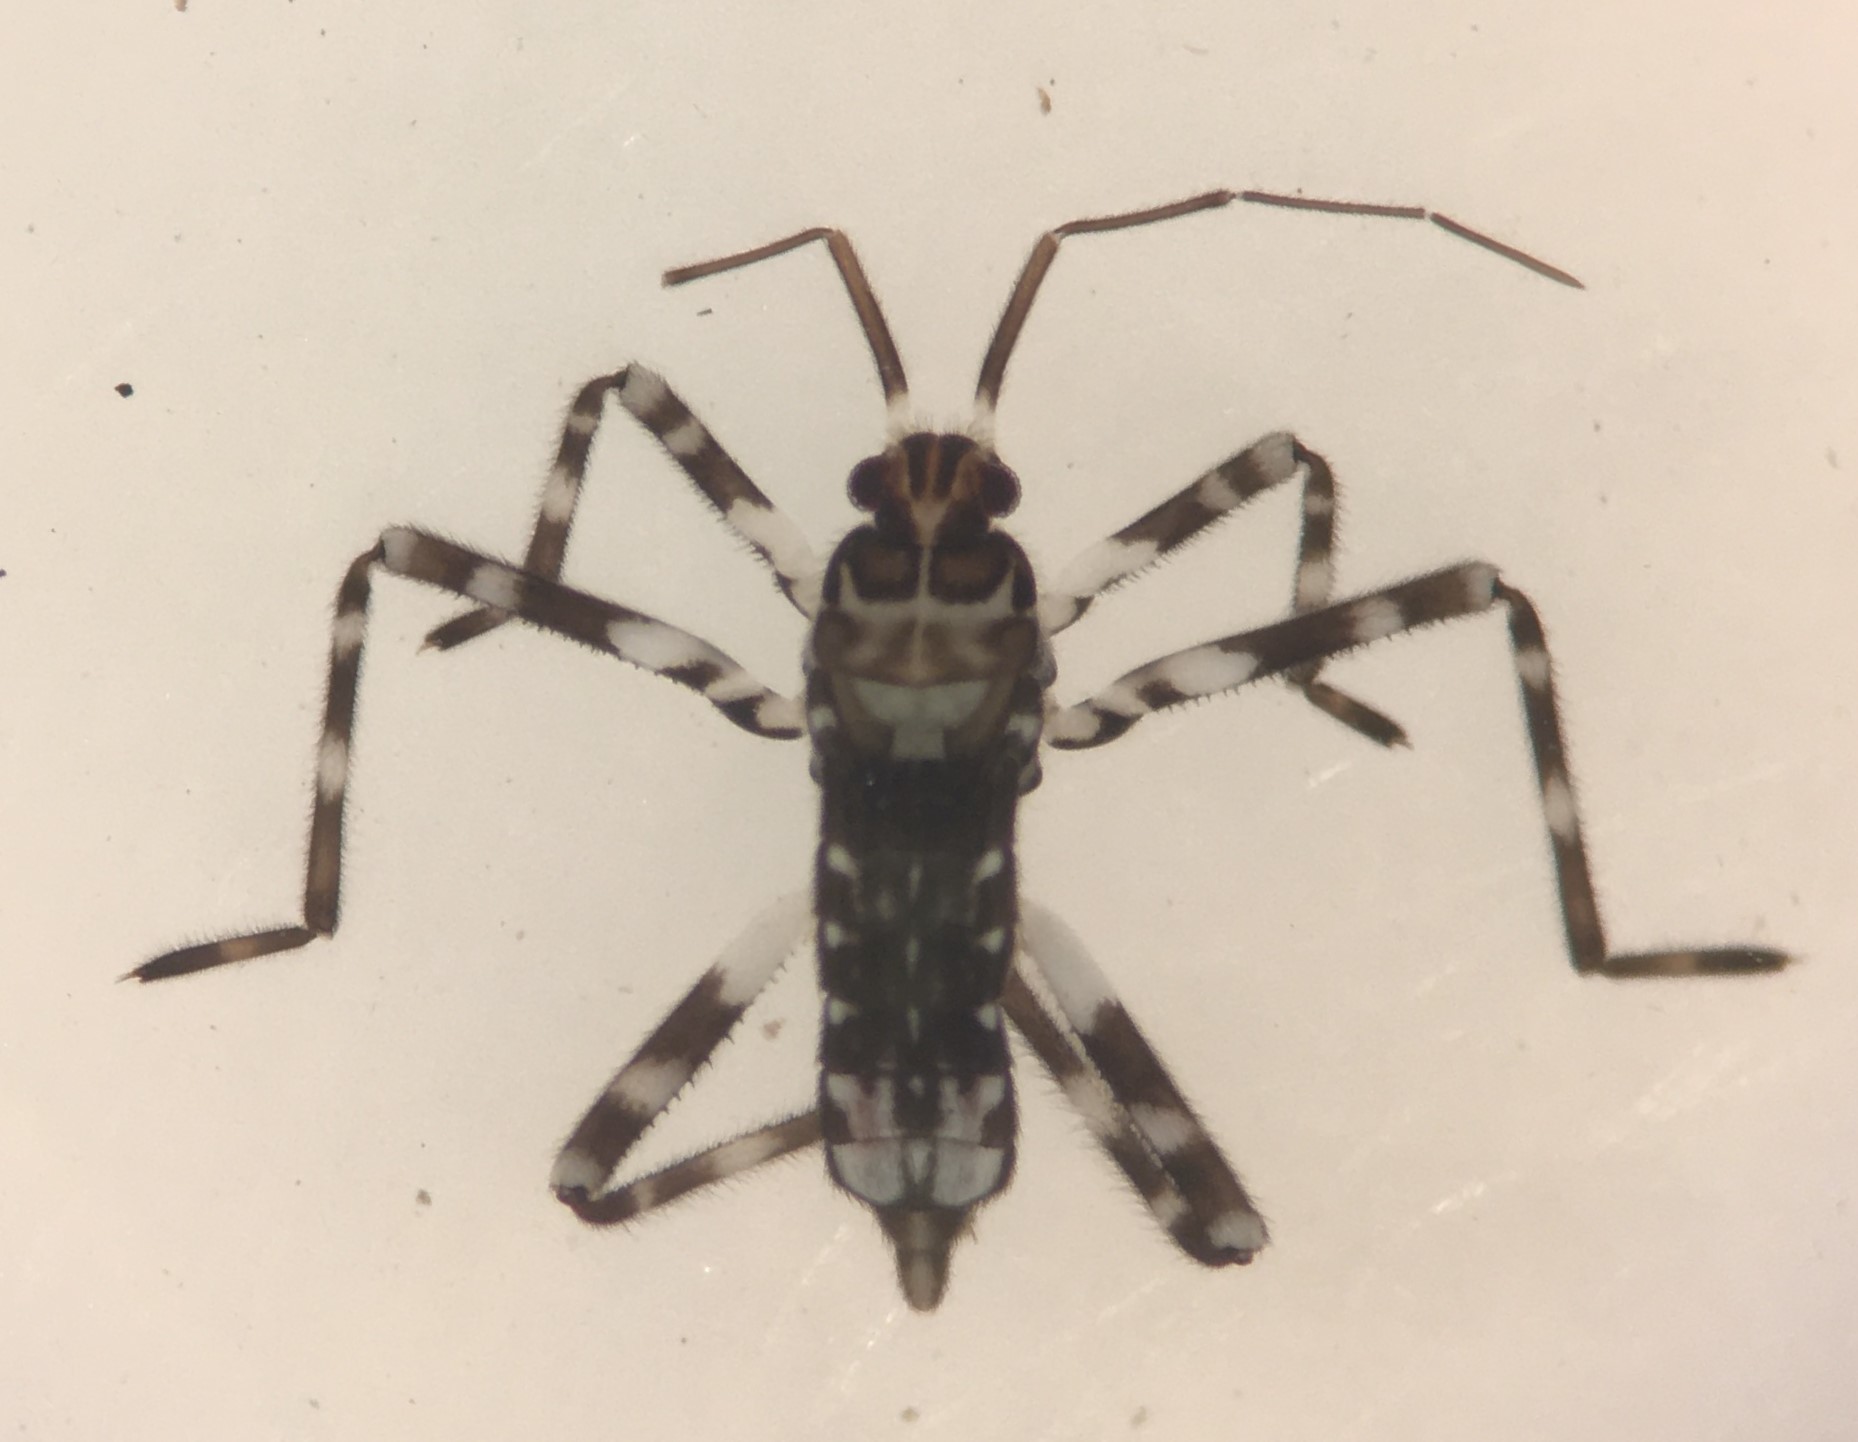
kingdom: Animalia
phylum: Arthropoda
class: Insecta
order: Hemiptera
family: Veliidae
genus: Steinovelia
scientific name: Steinovelia stagnalis
